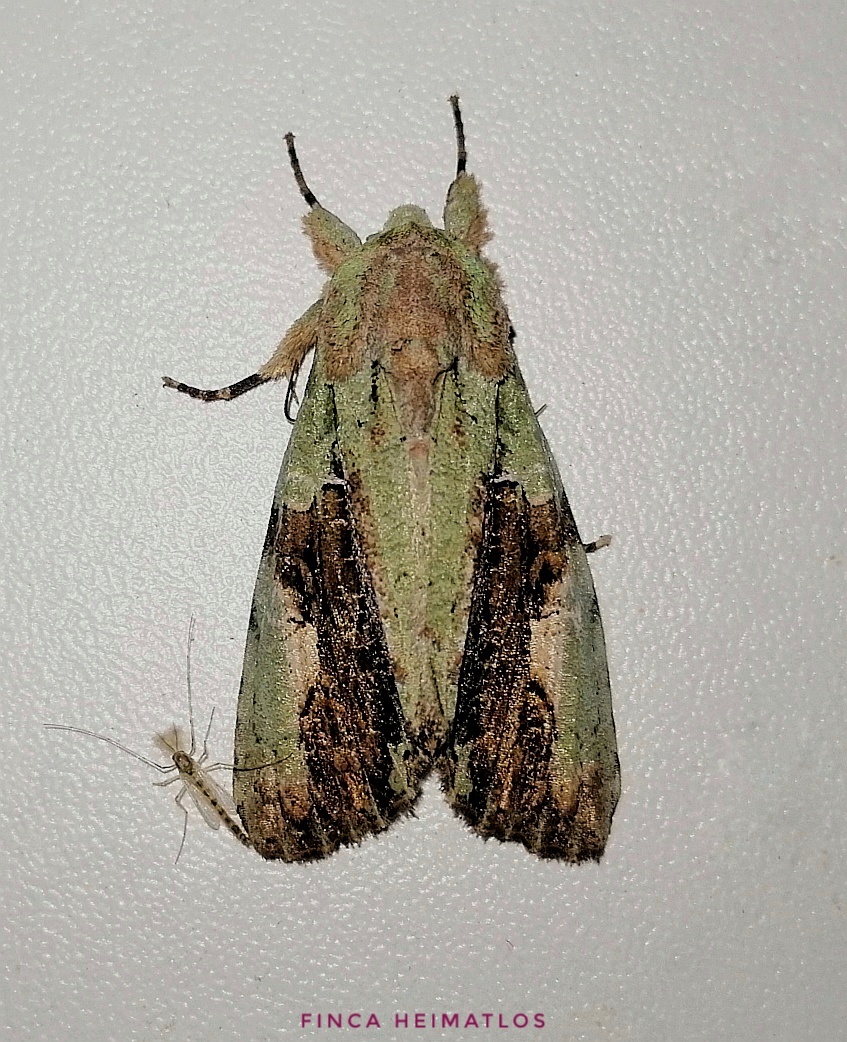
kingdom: Animalia
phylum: Arthropoda
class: Insecta
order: Lepidoptera
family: Noctuidae
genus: Stauropides
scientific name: Stauropides persimilis
